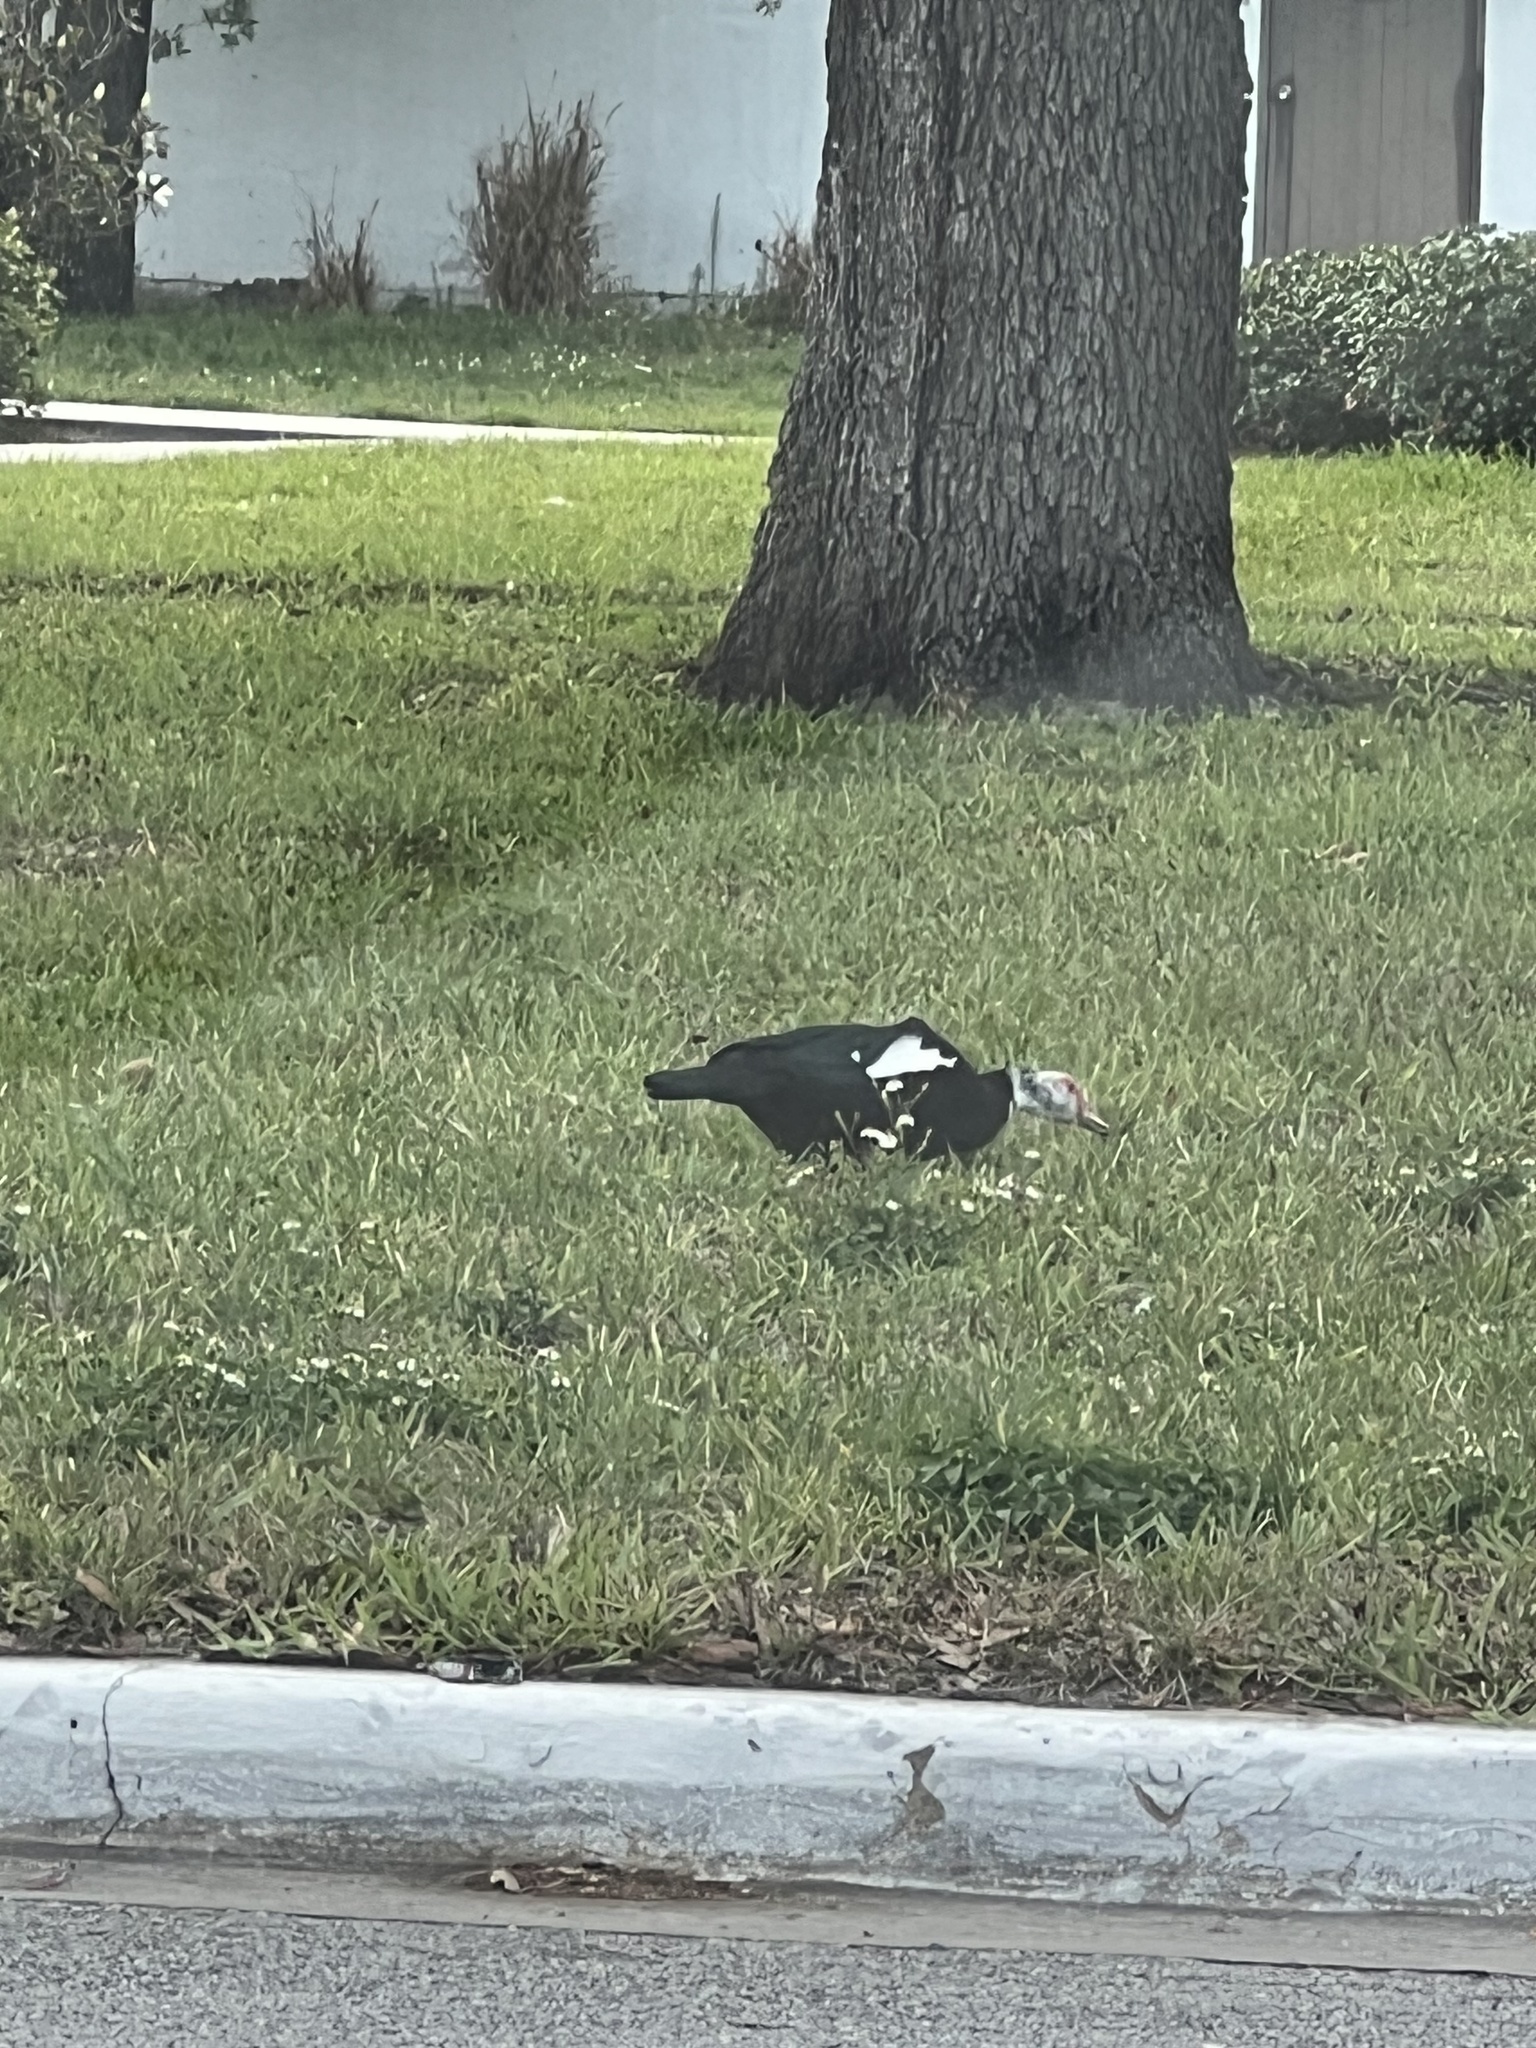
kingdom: Animalia
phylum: Chordata
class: Aves
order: Anseriformes
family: Anatidae
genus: Cairina
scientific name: Cairina moschata
